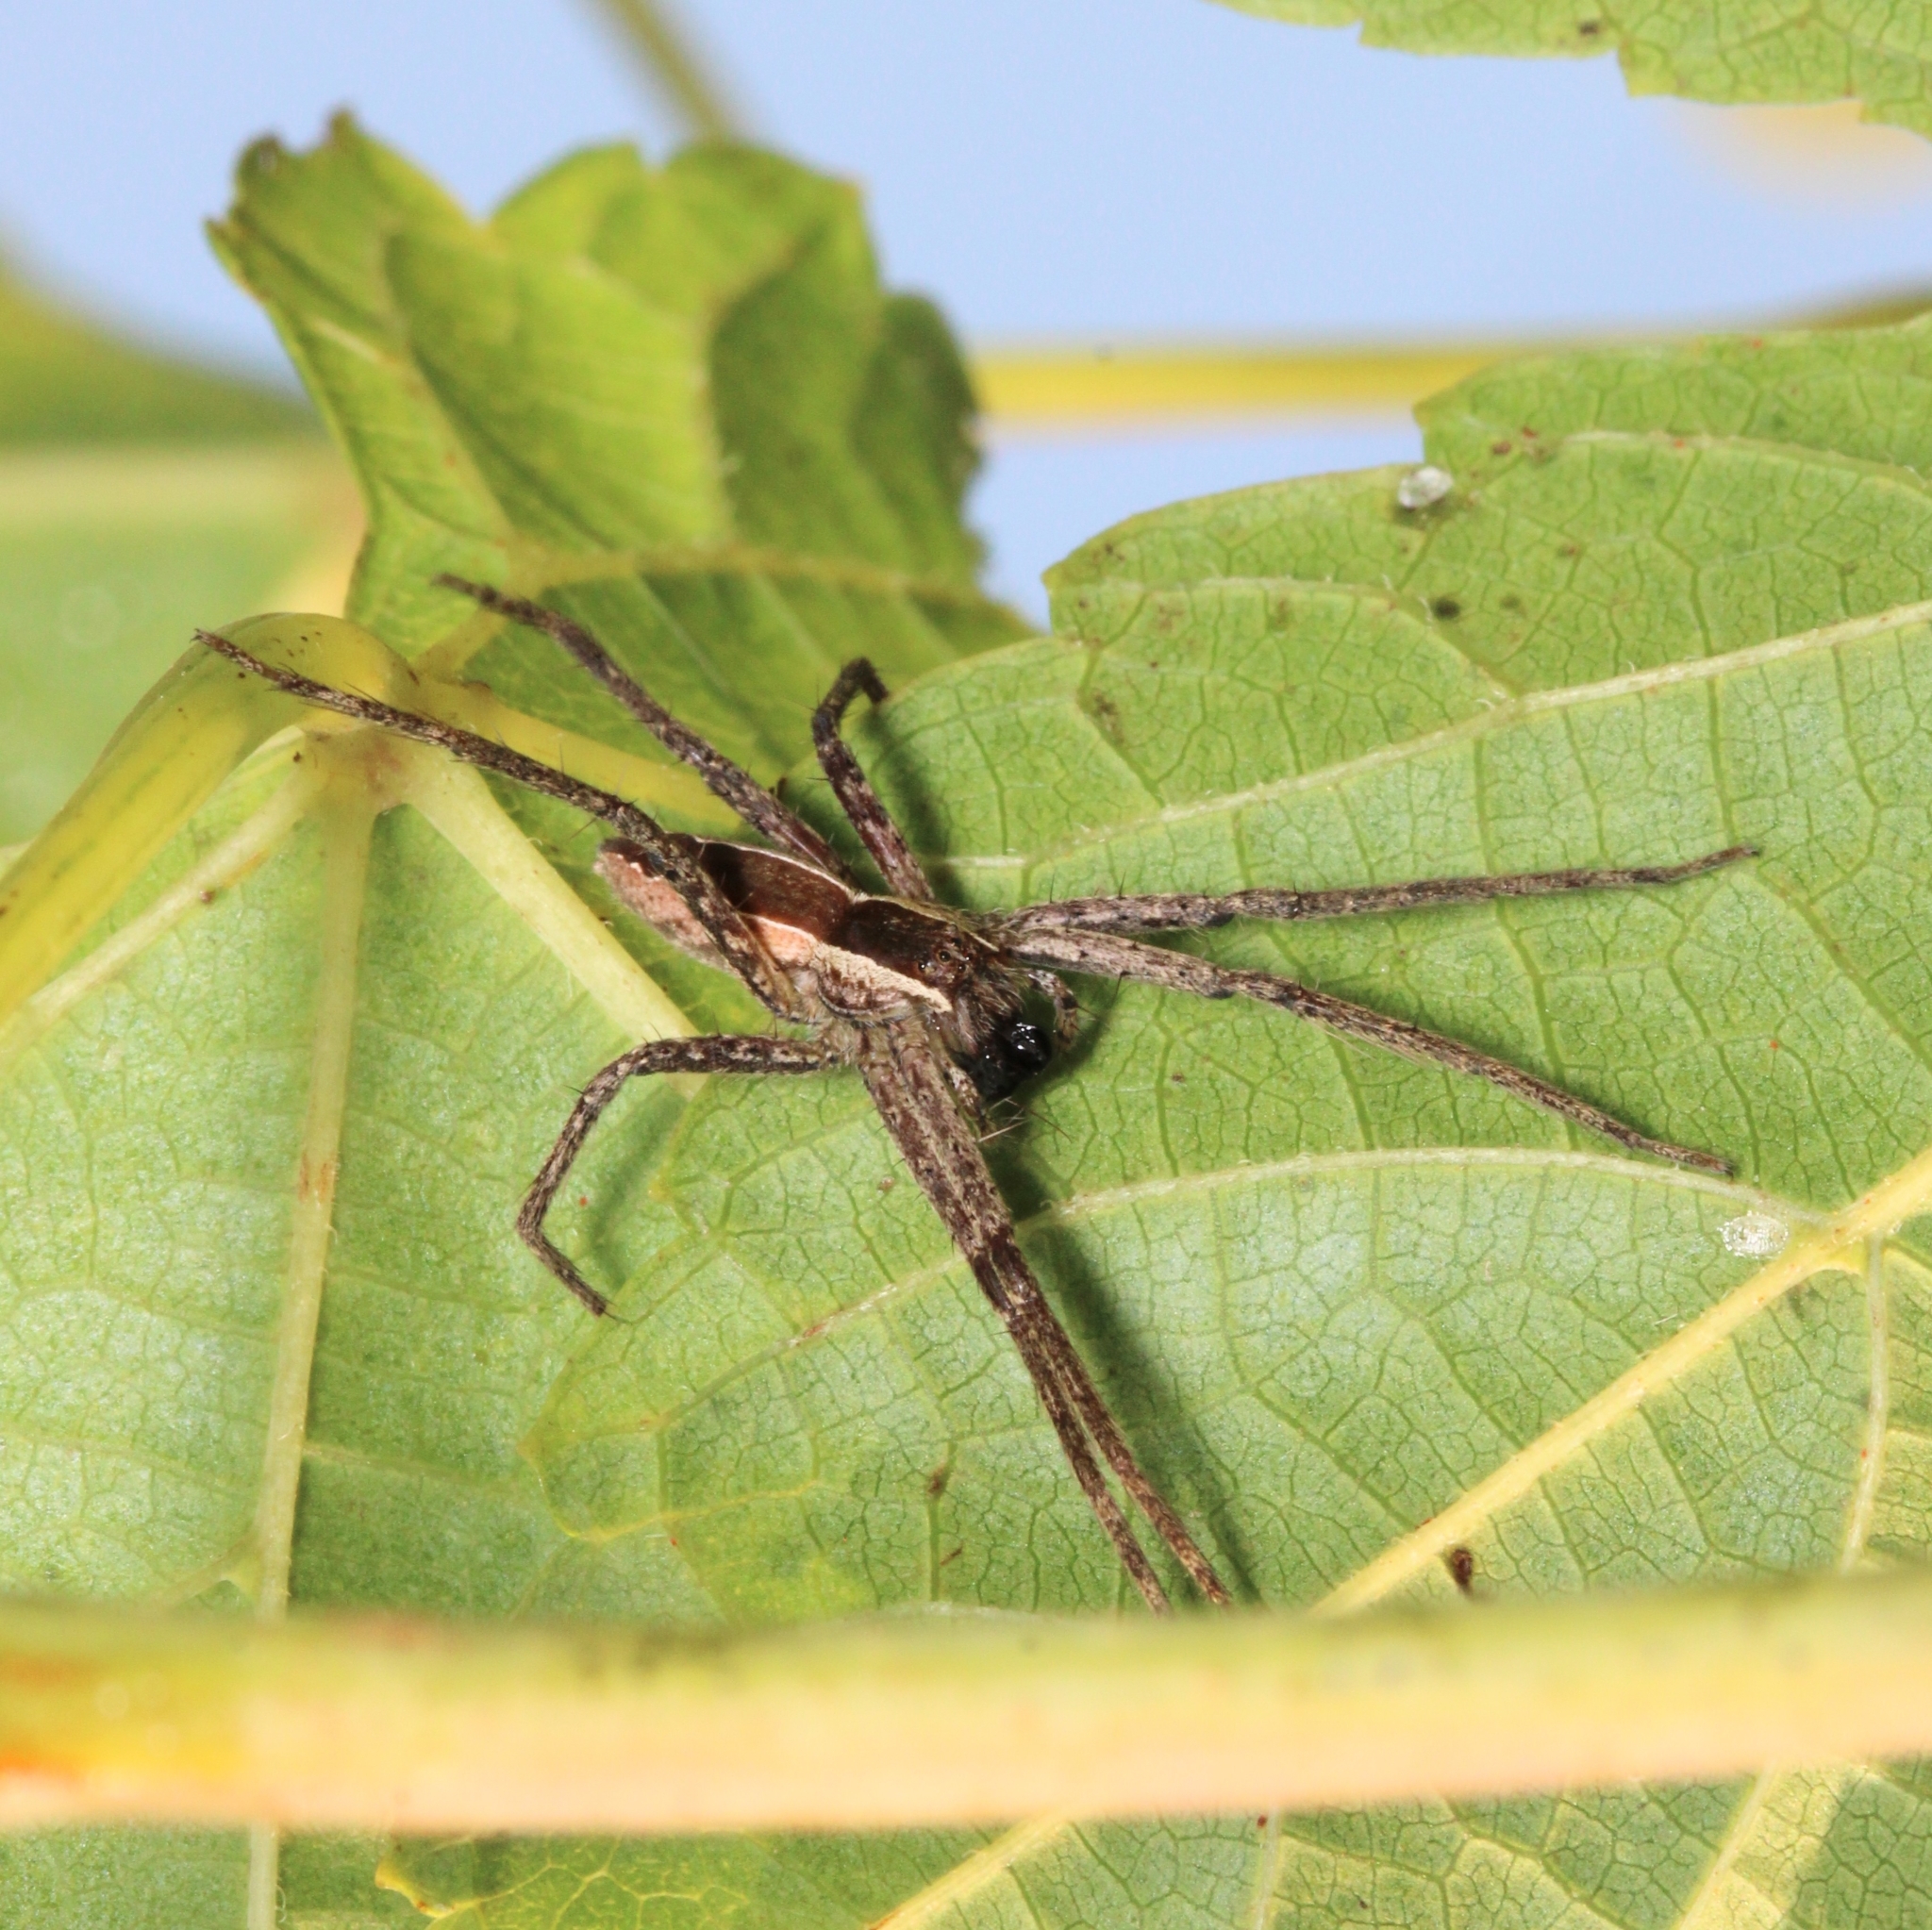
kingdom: Animalia
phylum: Arthropoda
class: Arachnida
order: Araneae
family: Pisauridae
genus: Pisaurina
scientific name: Pisaurina mira
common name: American nursery web spider
